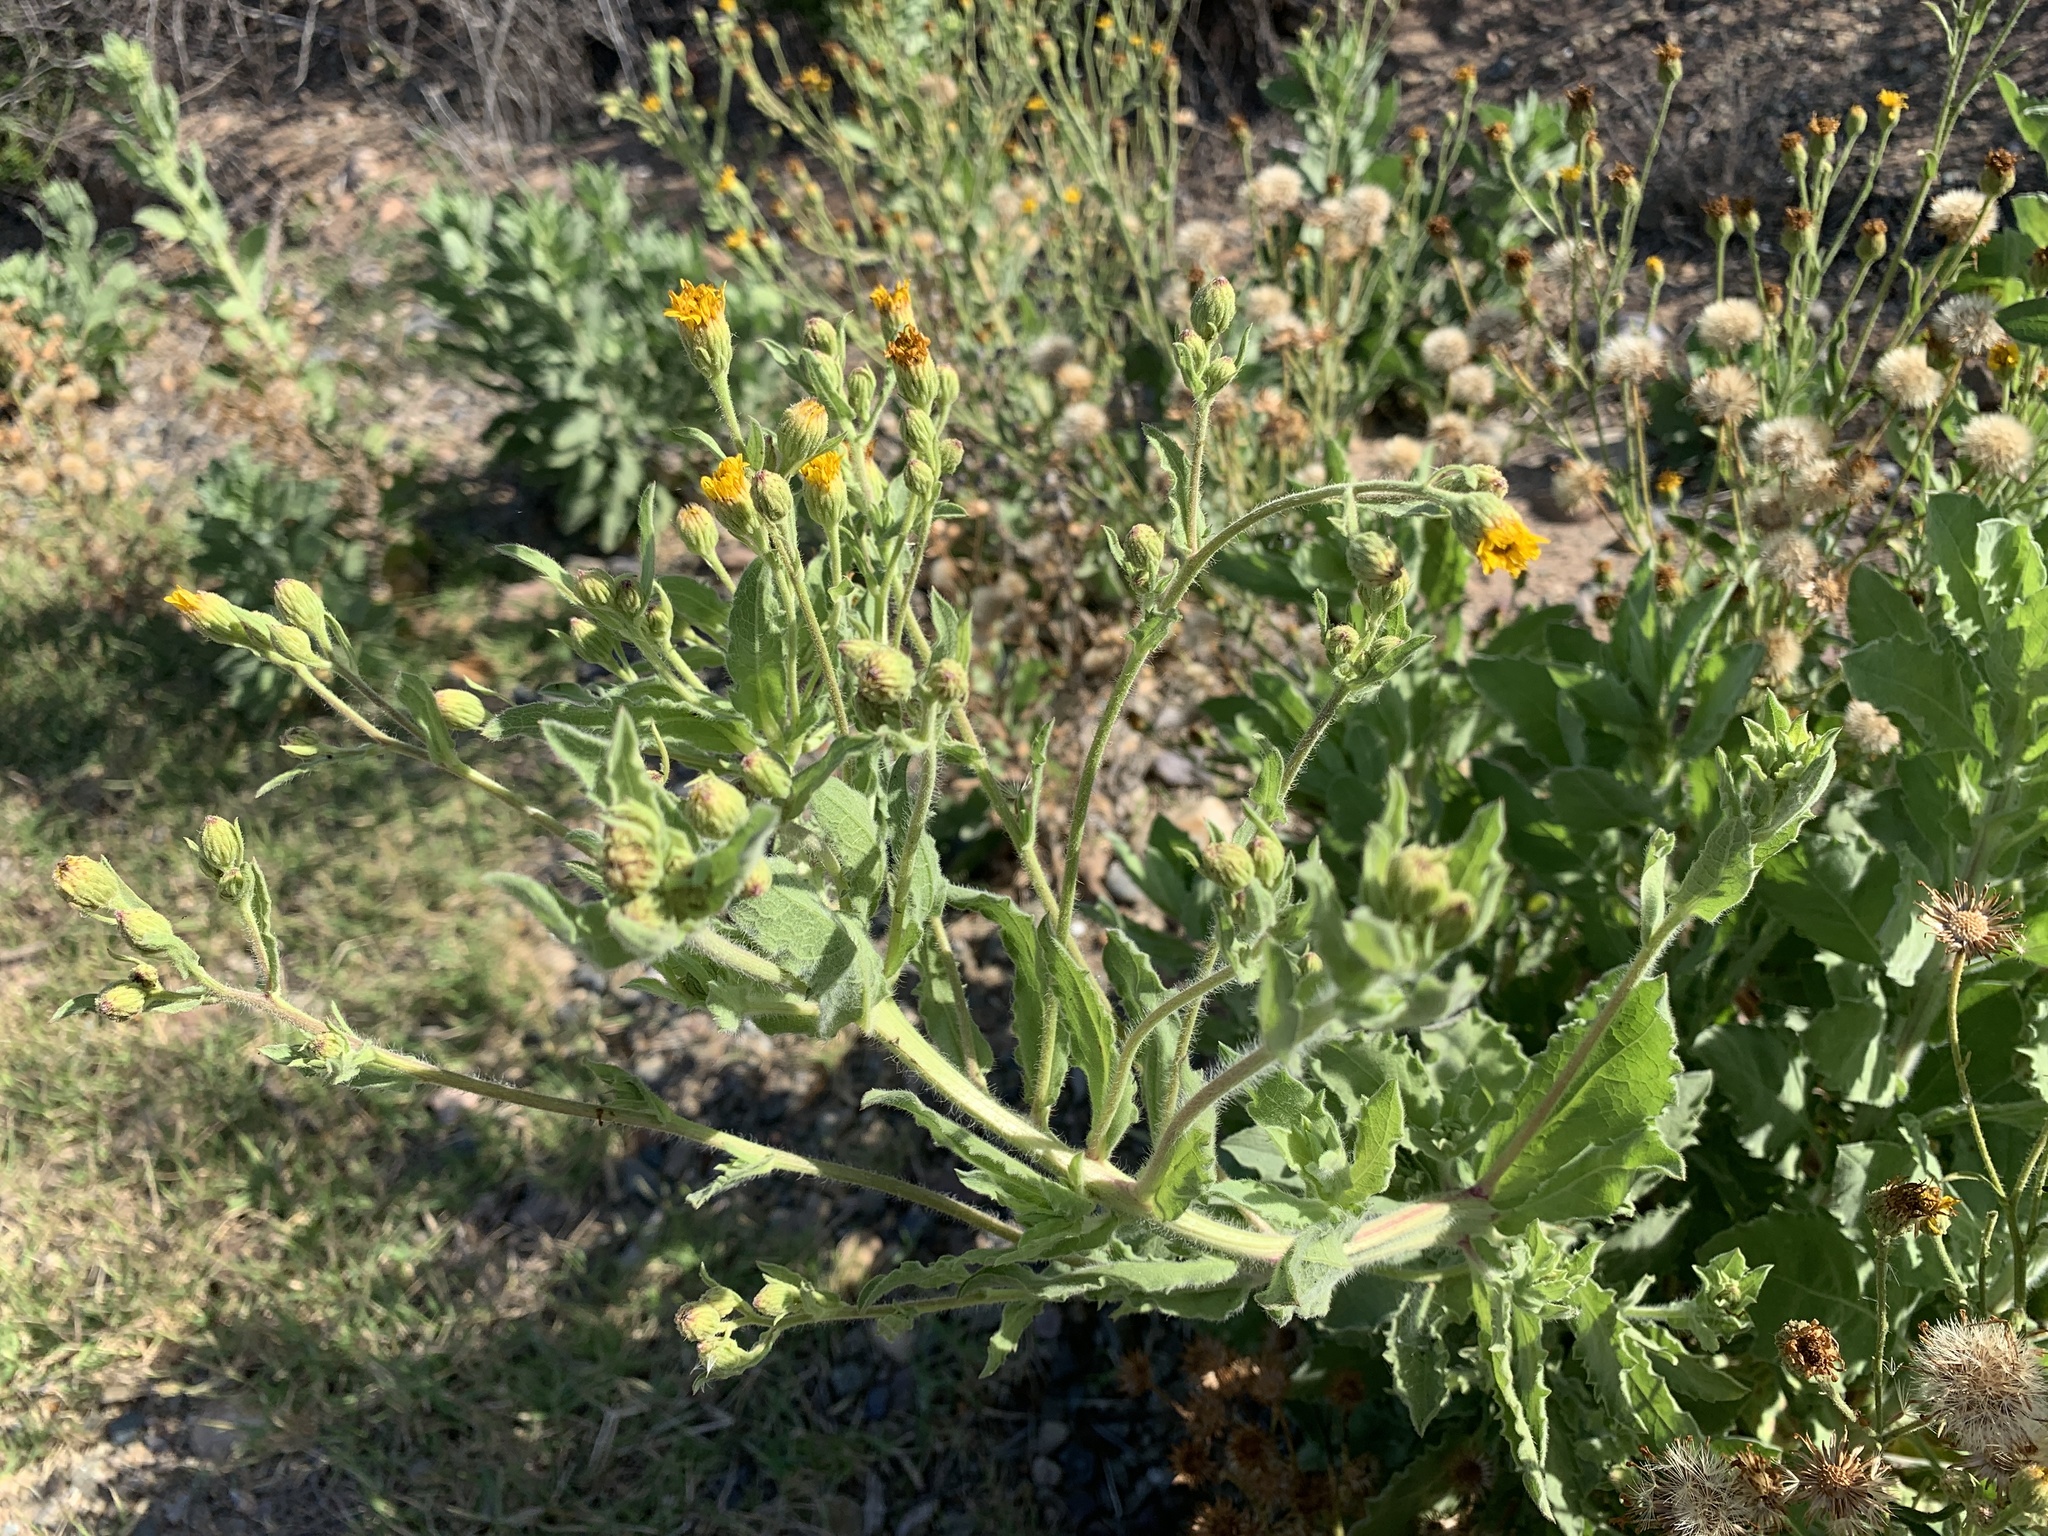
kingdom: Plantae
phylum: Tracheophyta
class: Magnoliopsida
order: Asterales
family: Asteraceae
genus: Heterotheca
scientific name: Heterotheca grandiflora
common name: Telegraphweed
